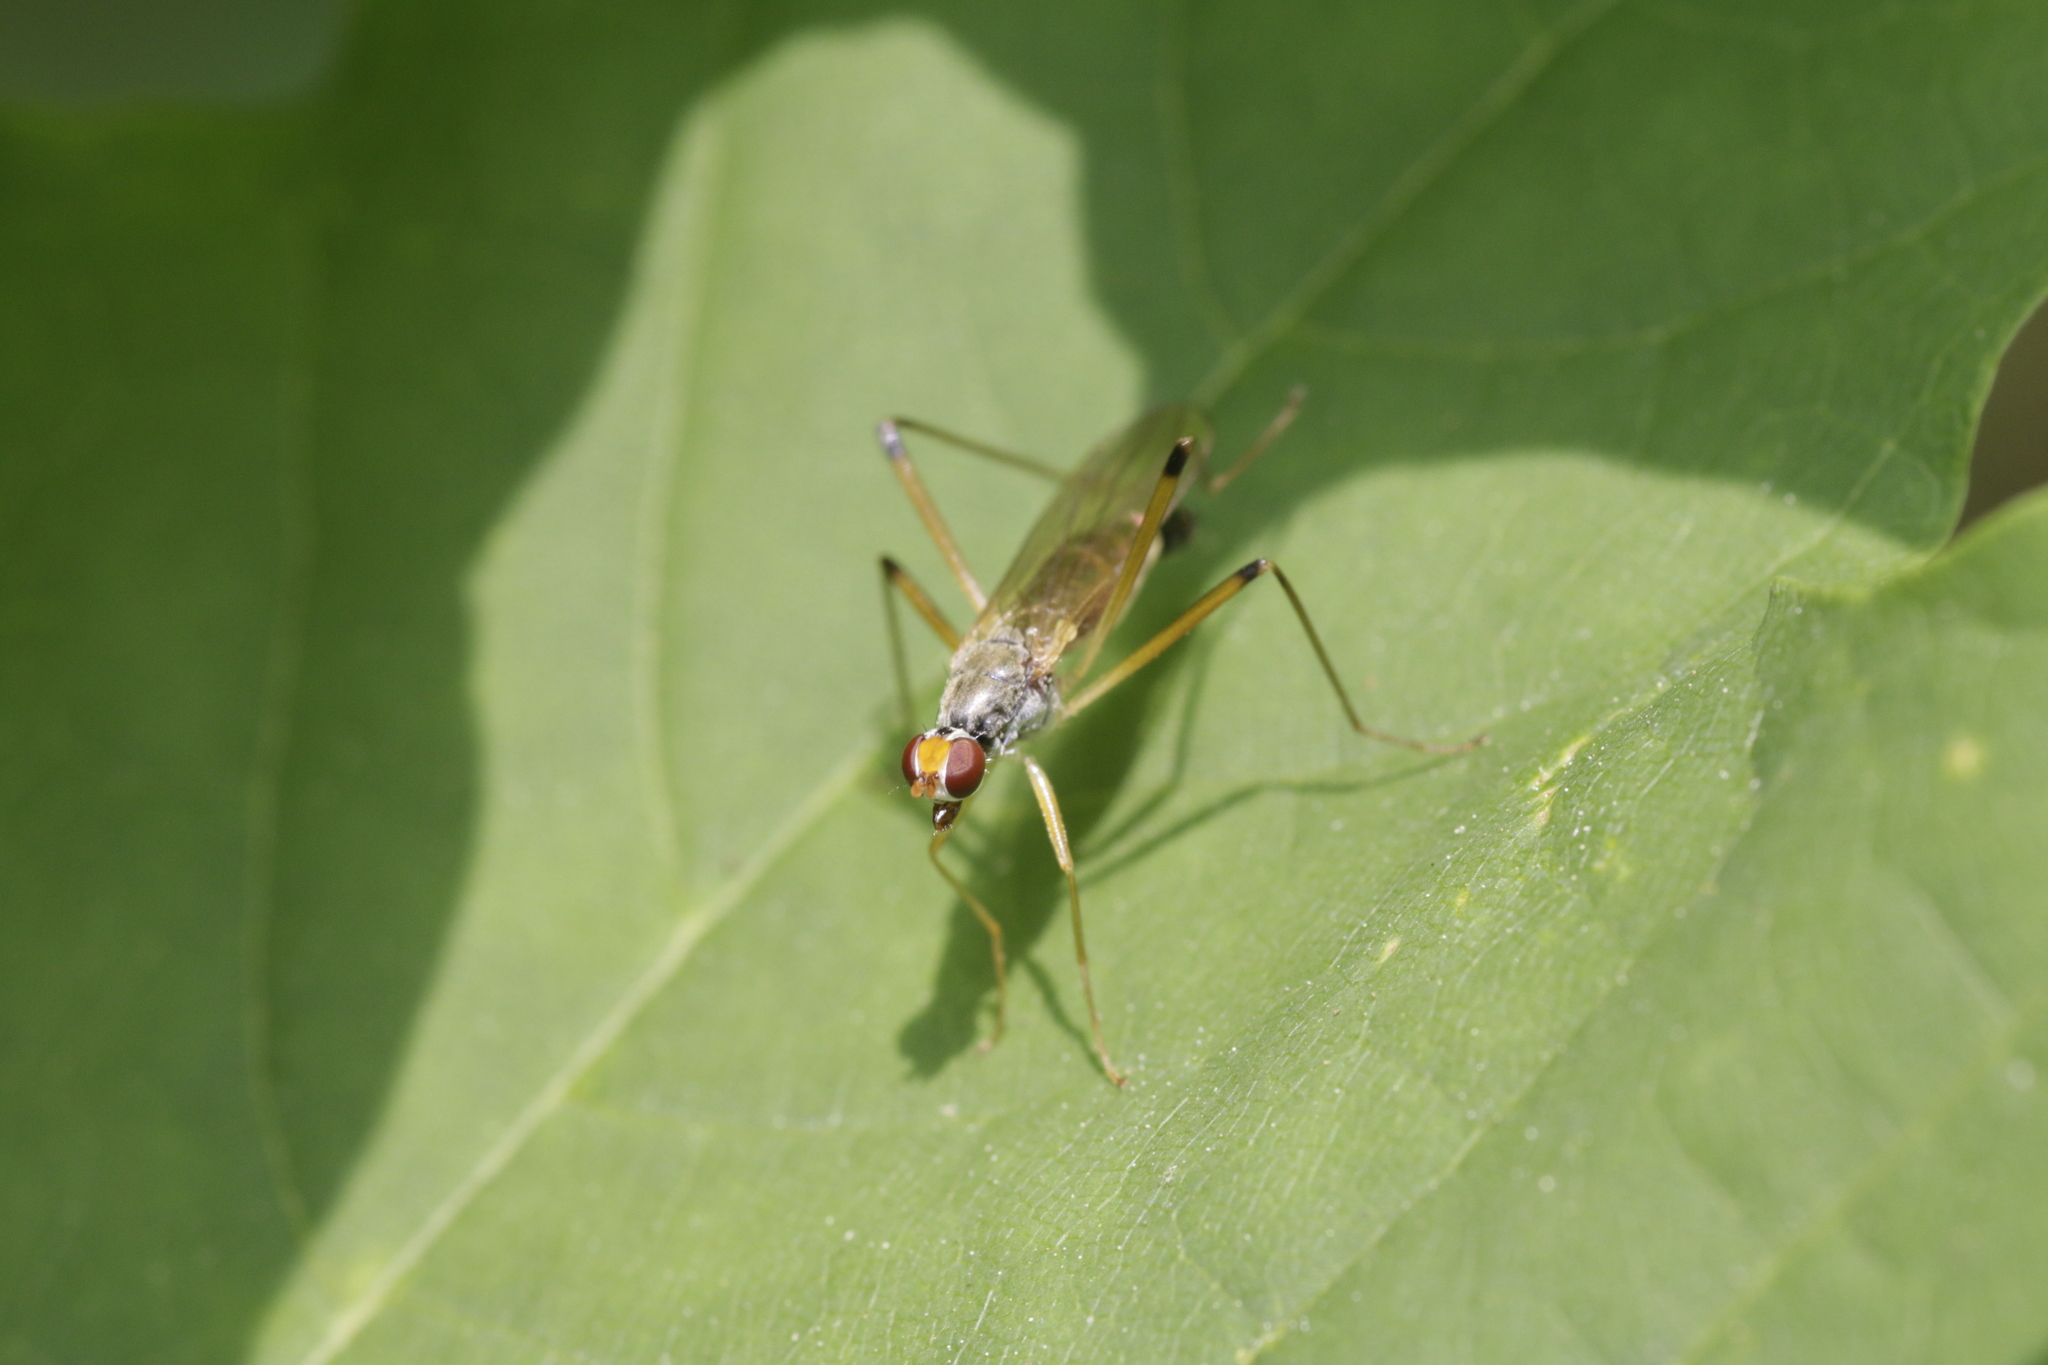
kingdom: Animalia
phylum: Arthropoda
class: Insecta
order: Diptera
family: Micropezidae
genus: Compsobata
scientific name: Compsobata cibaria
